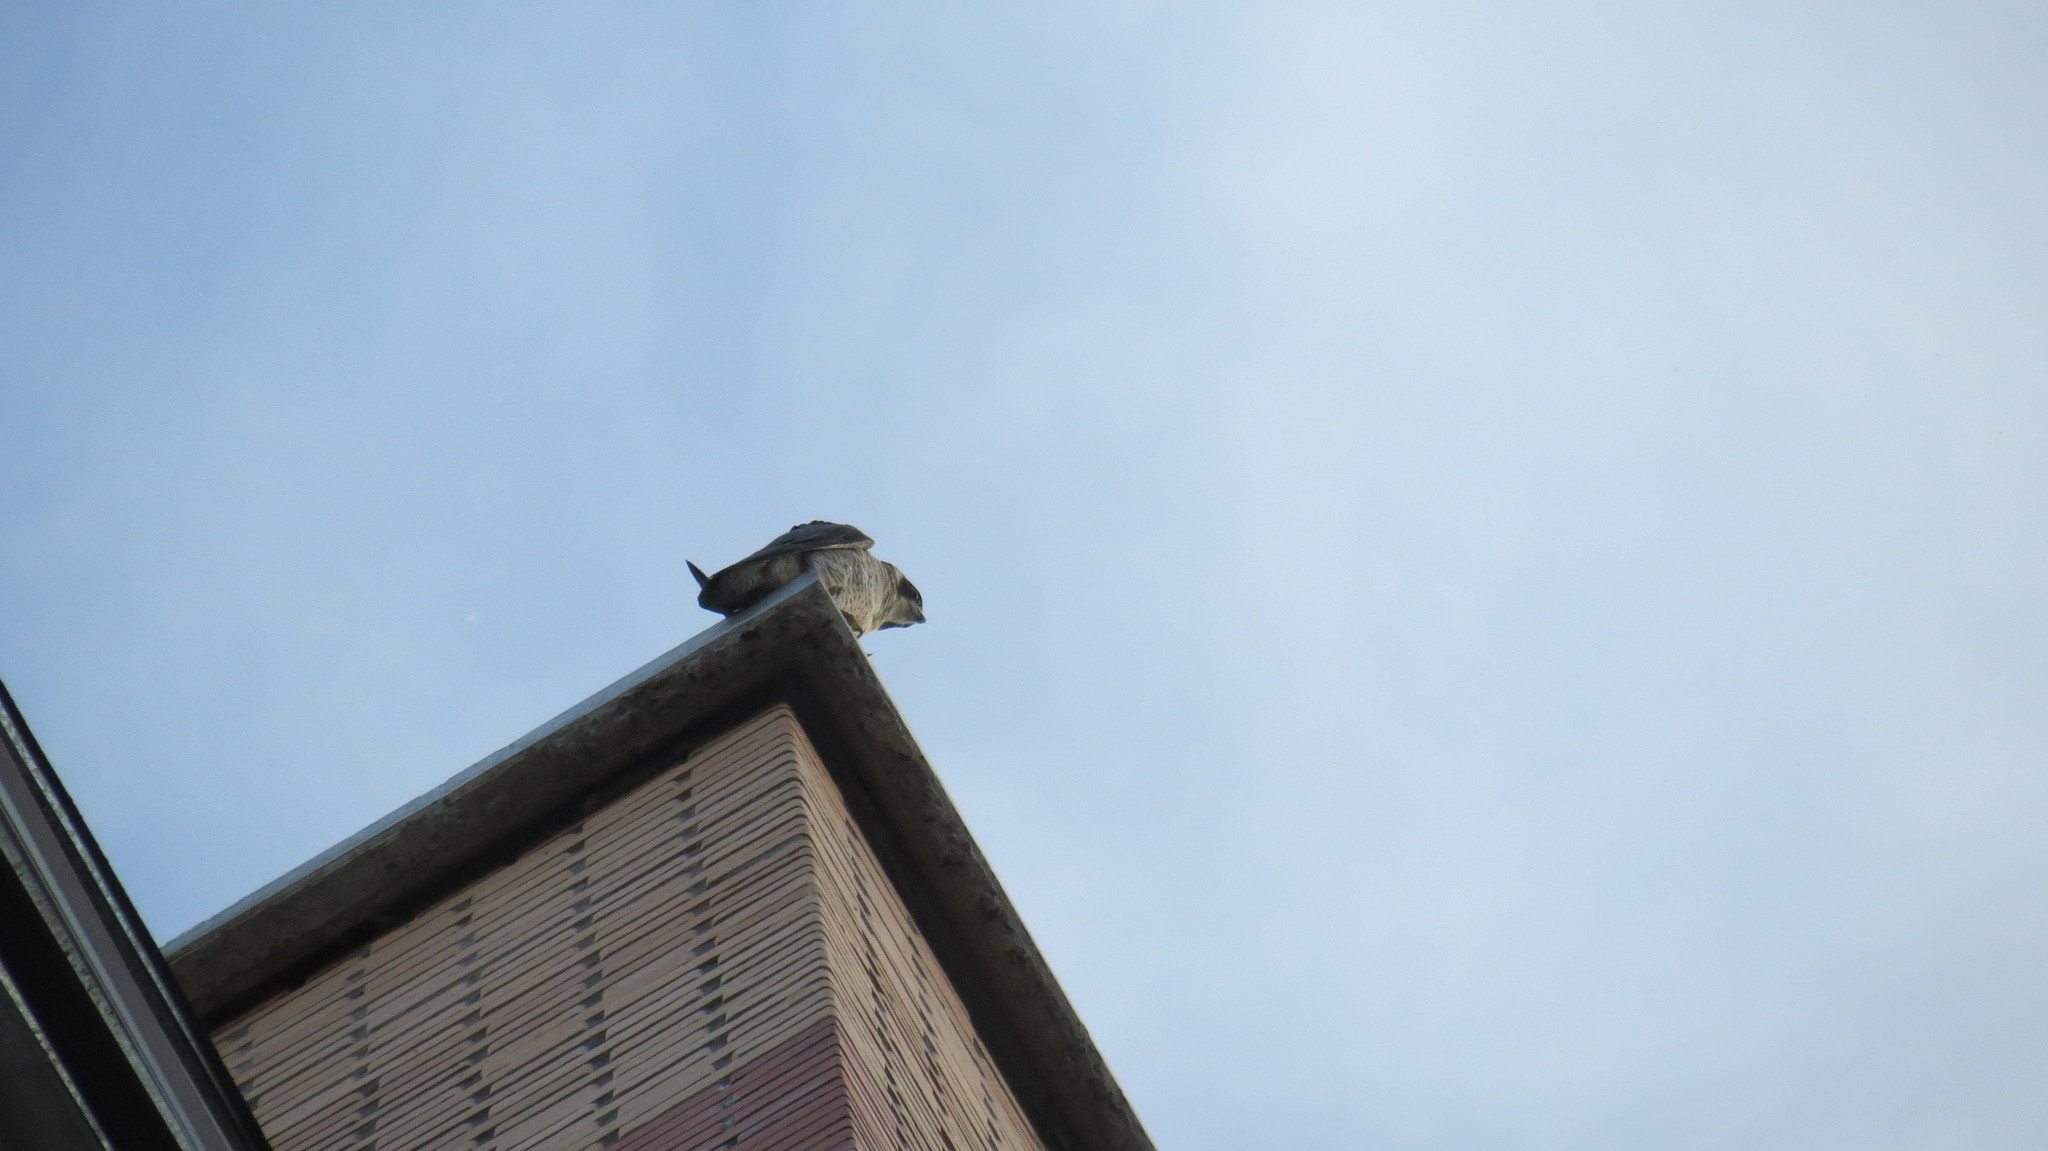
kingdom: Animalia
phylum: Chordata
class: Aves
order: Falconiformes
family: Falconidae
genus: Falco
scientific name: Falco peregrinus
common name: Peregrine falcon
